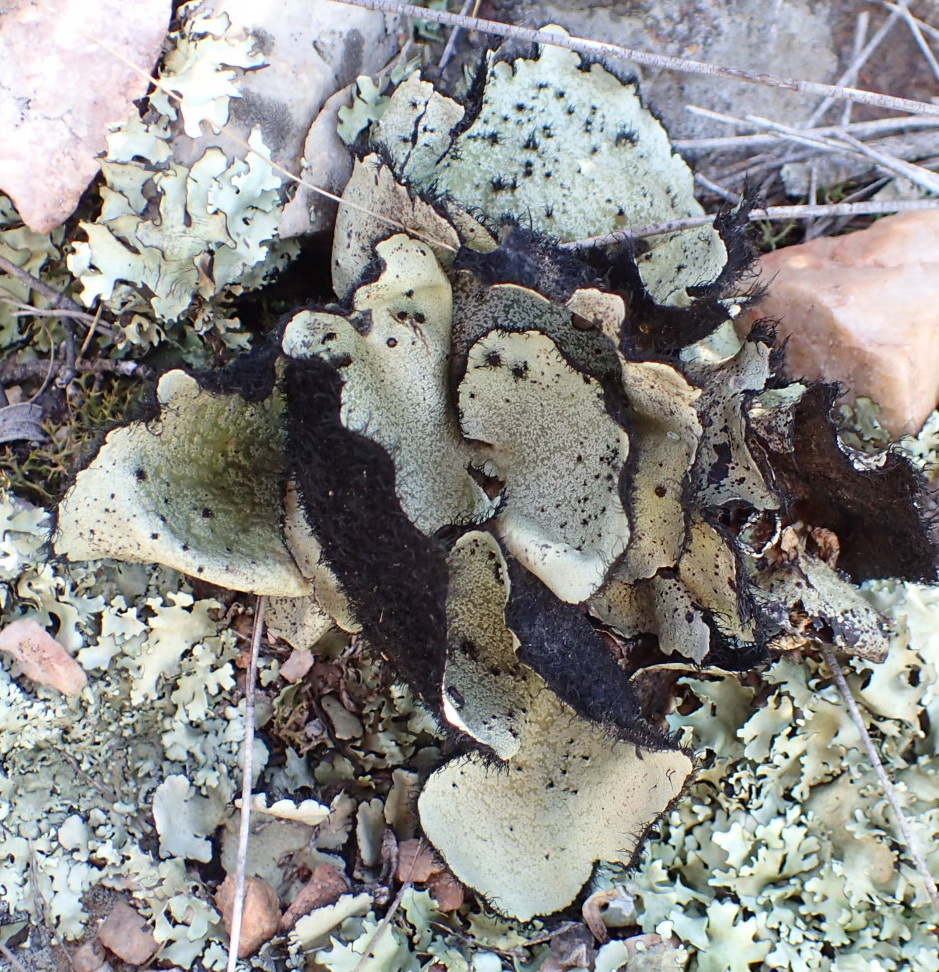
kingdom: Fungi
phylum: Ascomycota
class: Lecanoromycetes
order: Lecanorales
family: Parmeliaceae
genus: Xanthoparmelia
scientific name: Xanthoparmelia hottentotta
